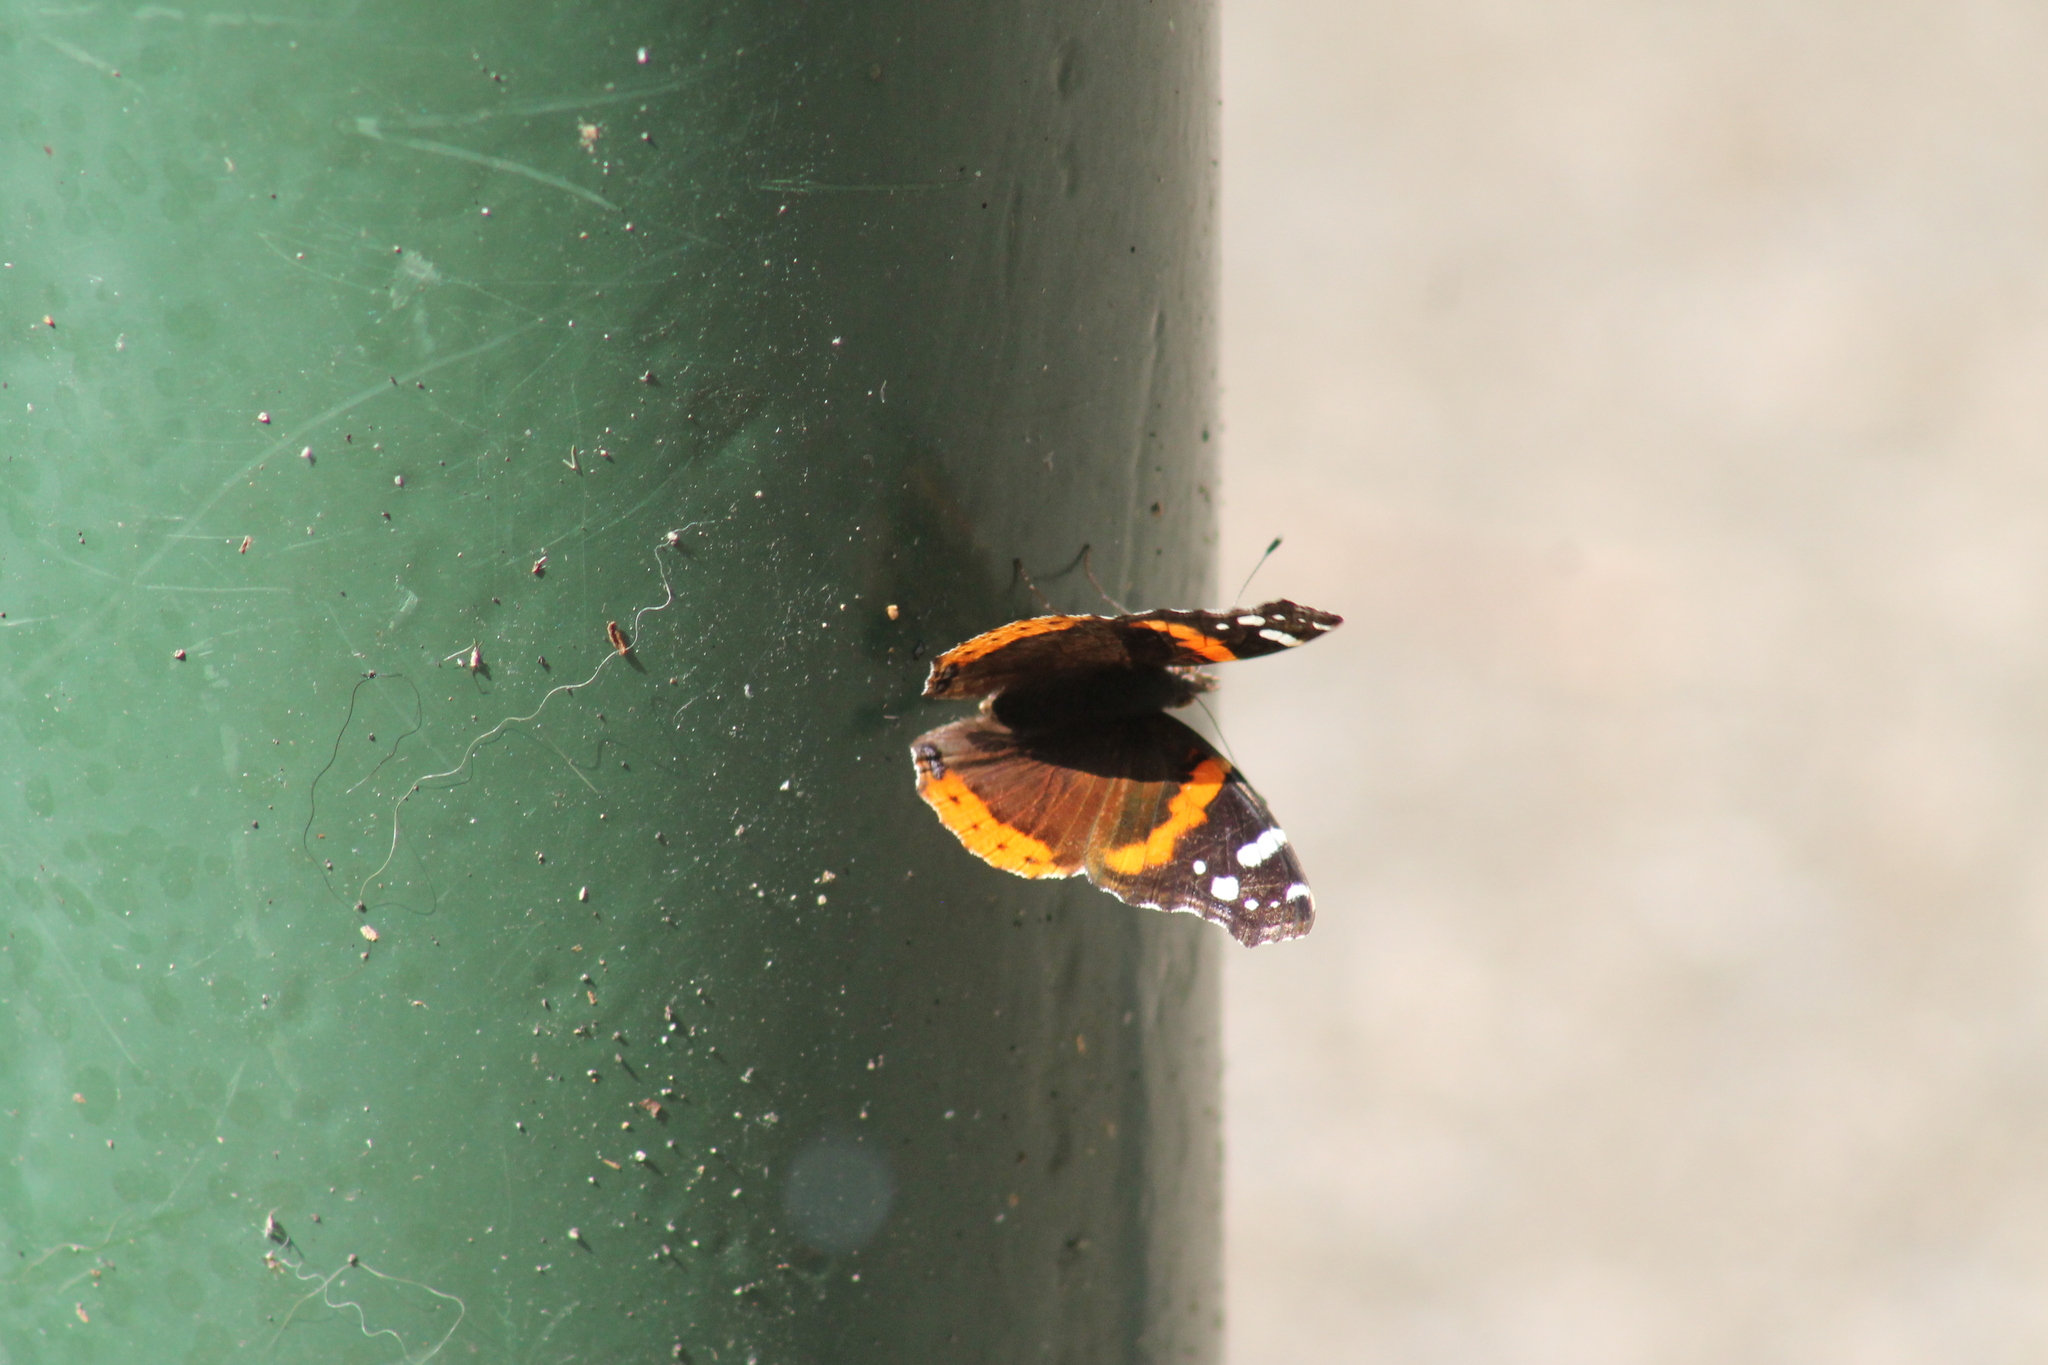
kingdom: Animalia
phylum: Arthropoda
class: Insecta
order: Lepidoptera
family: Nymphalidae
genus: Vanessa
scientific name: Vanessa atalanta
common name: Red admiral
